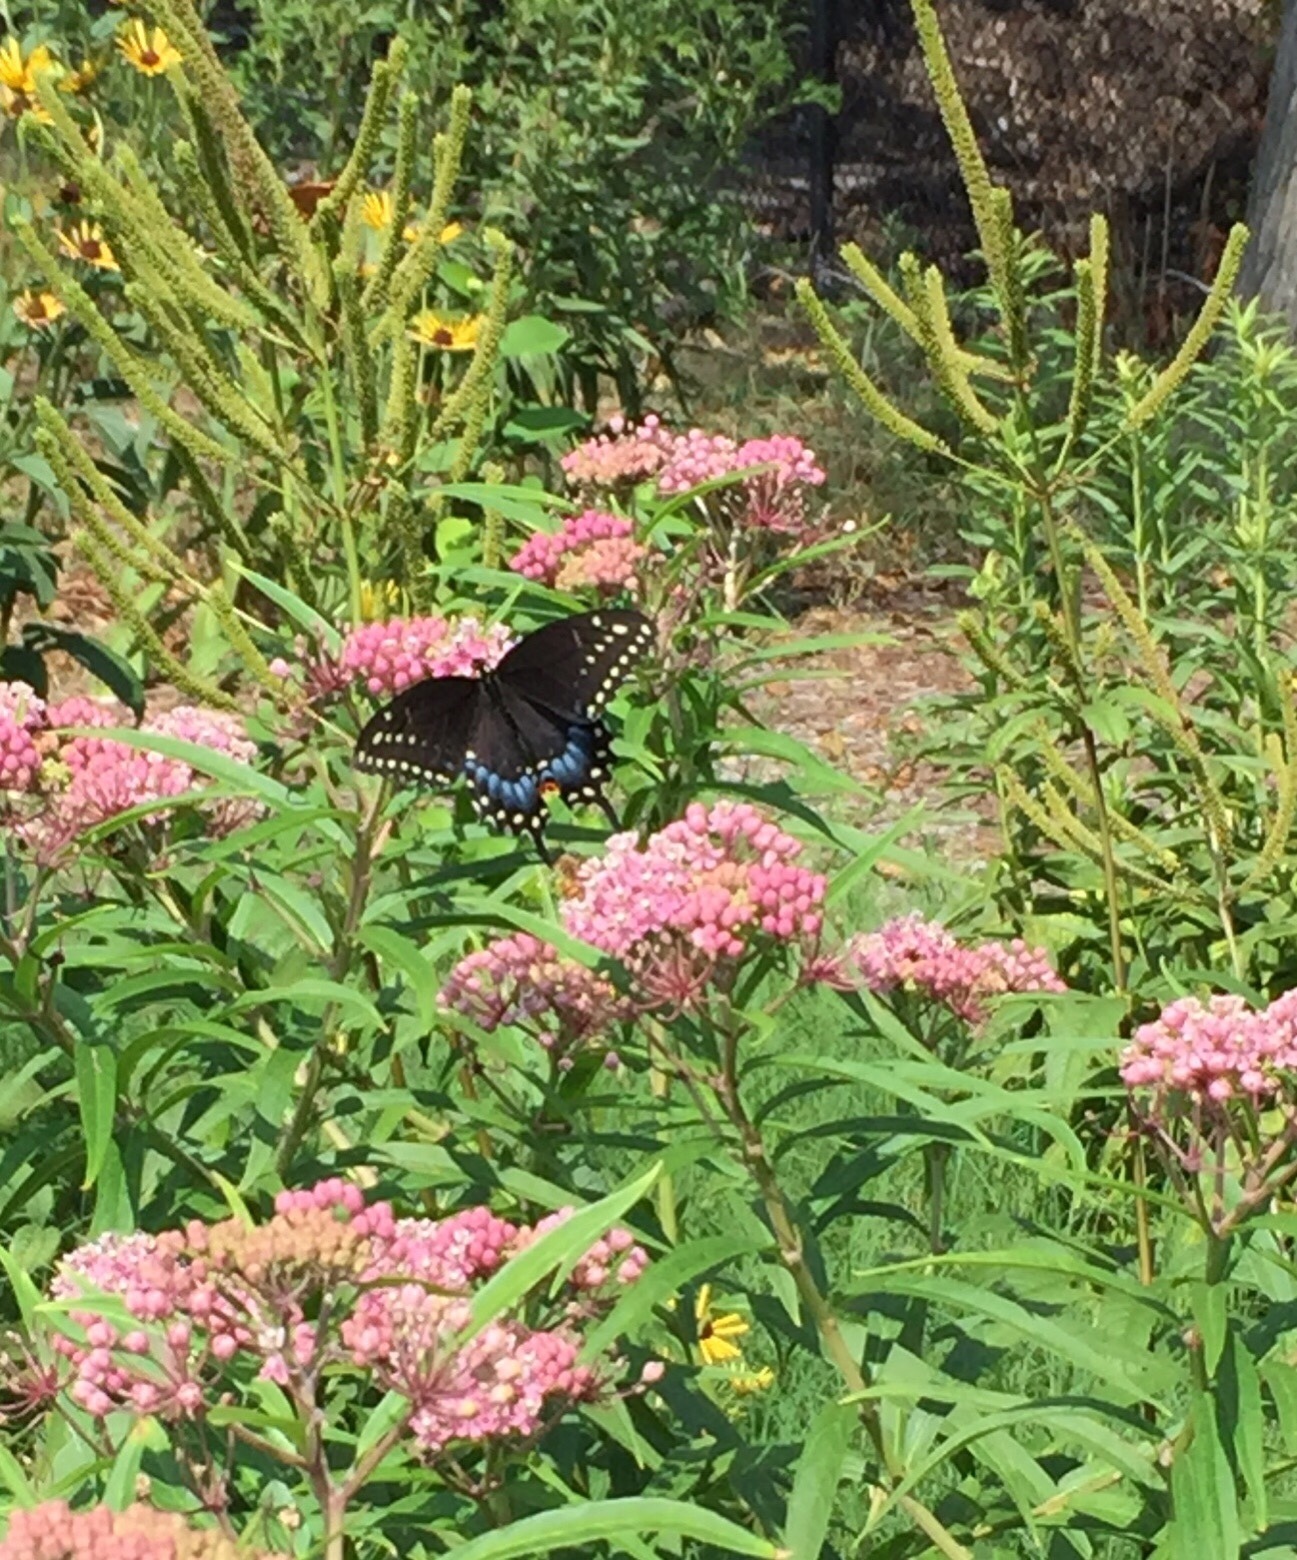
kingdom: Animalia
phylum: Arthropoda
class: Insecta
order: Lepidoptera
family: Papilionidae
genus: Papilio
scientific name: Papilio polyxenes
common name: Black swallowtail
